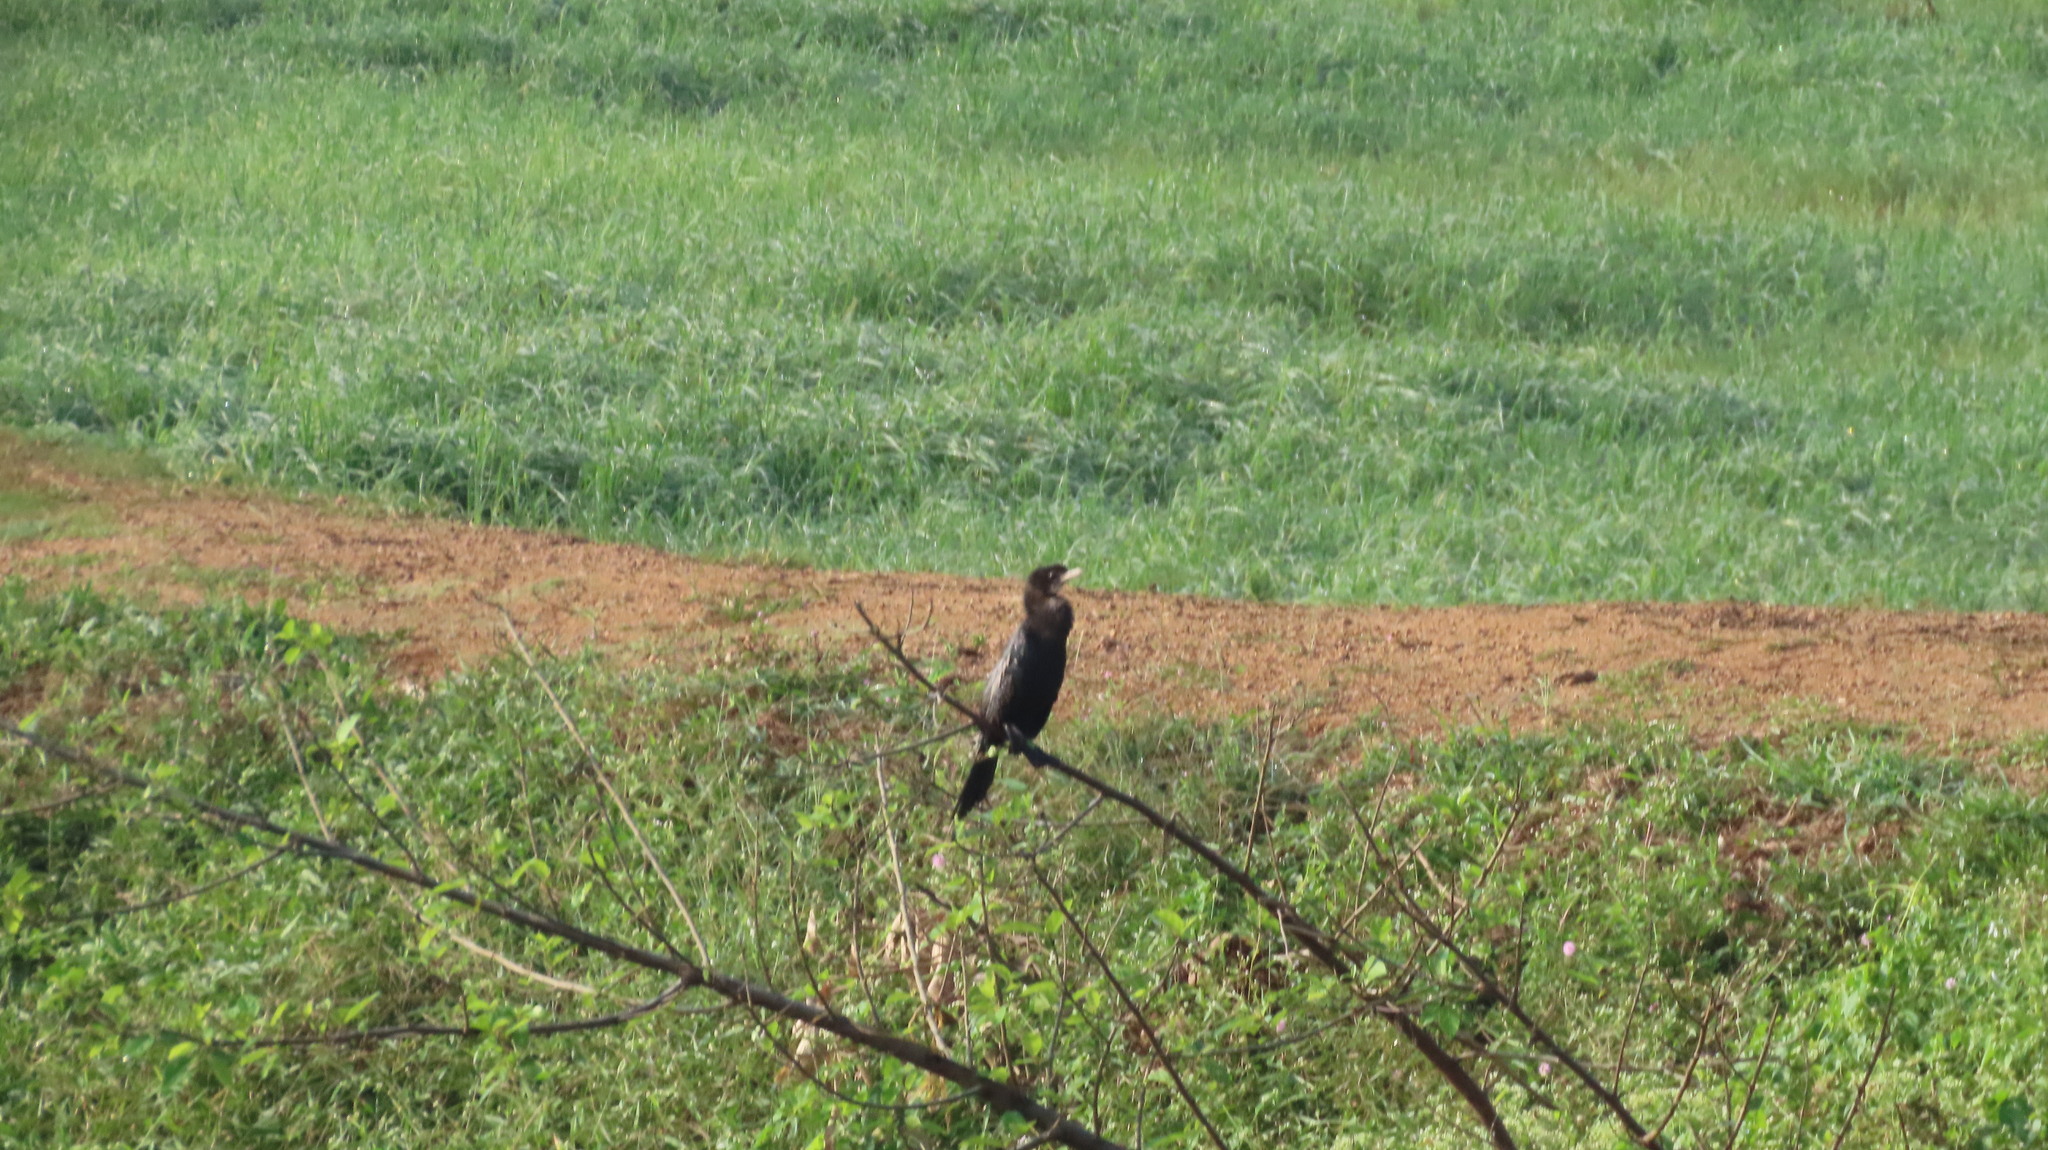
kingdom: Animalia
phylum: Chordata
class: Aves
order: Suliformes
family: Phalacrocoracidae
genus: Microcarbo
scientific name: Microcarbo niger
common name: Little cormorant
